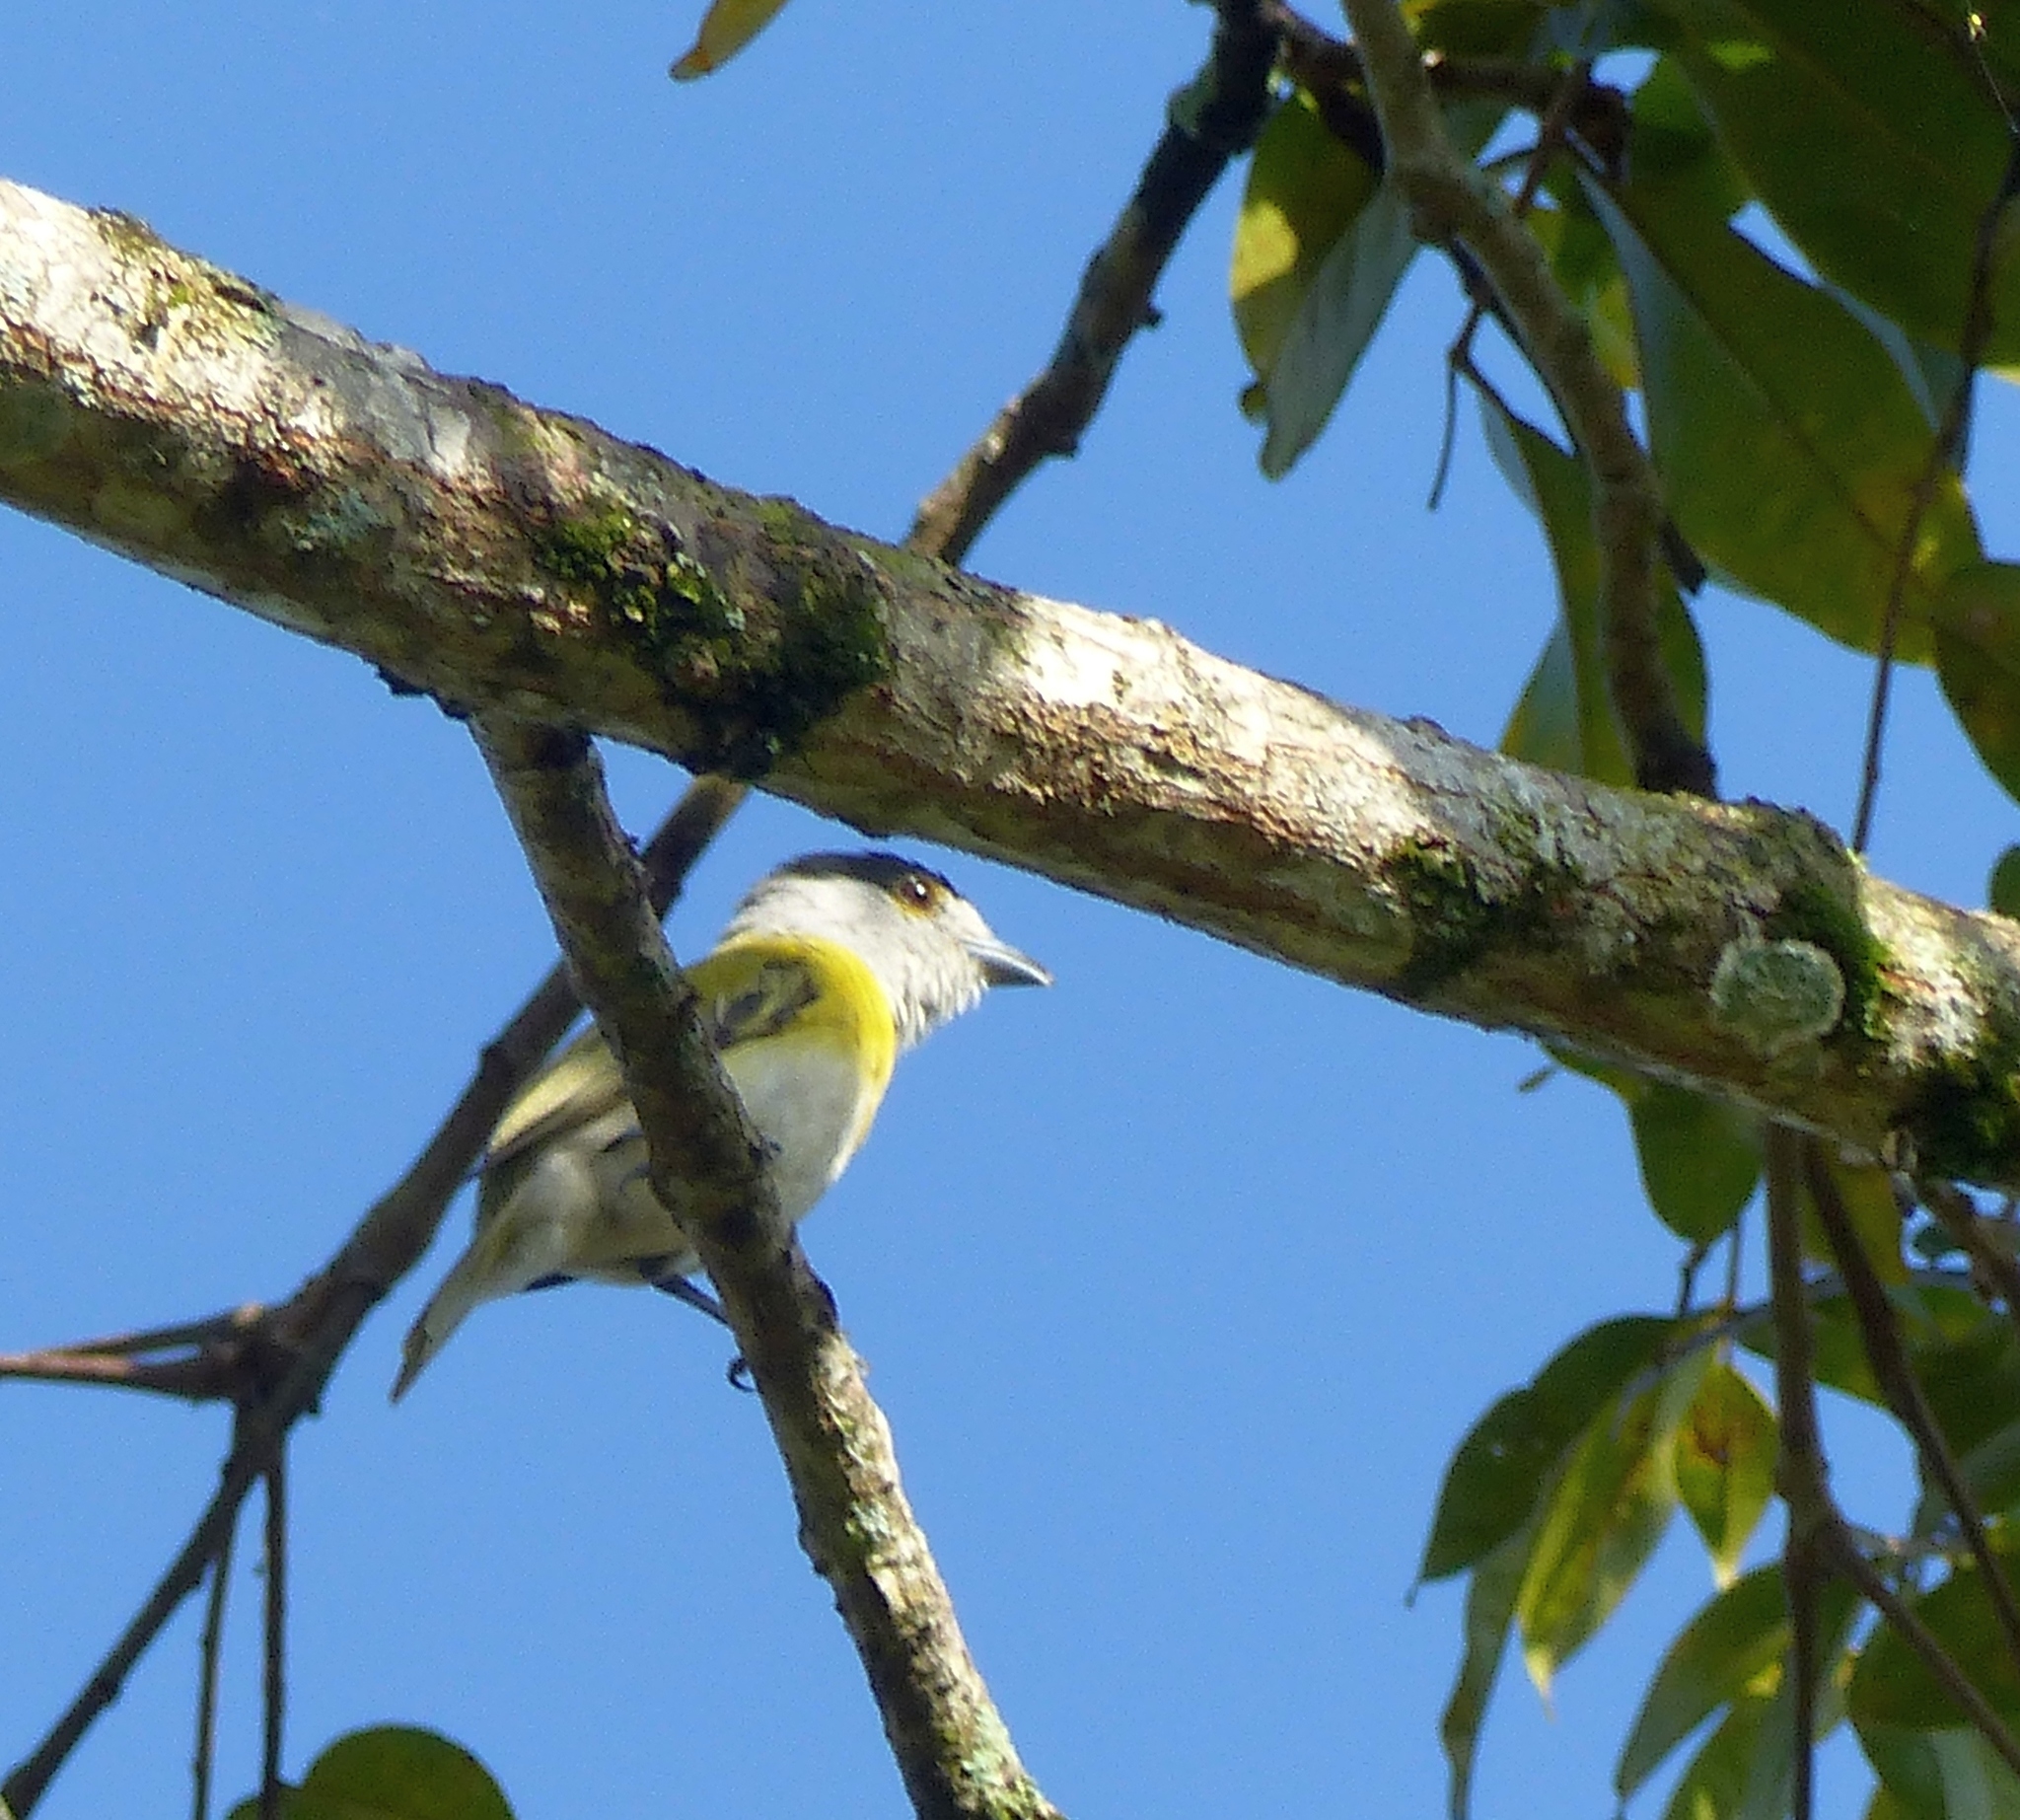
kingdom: Animalia
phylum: Chordata
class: Aves
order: Passeriformes
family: Cotingidae
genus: Pachyramphus
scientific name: Pachyramphus viridis
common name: Green-backed becard
